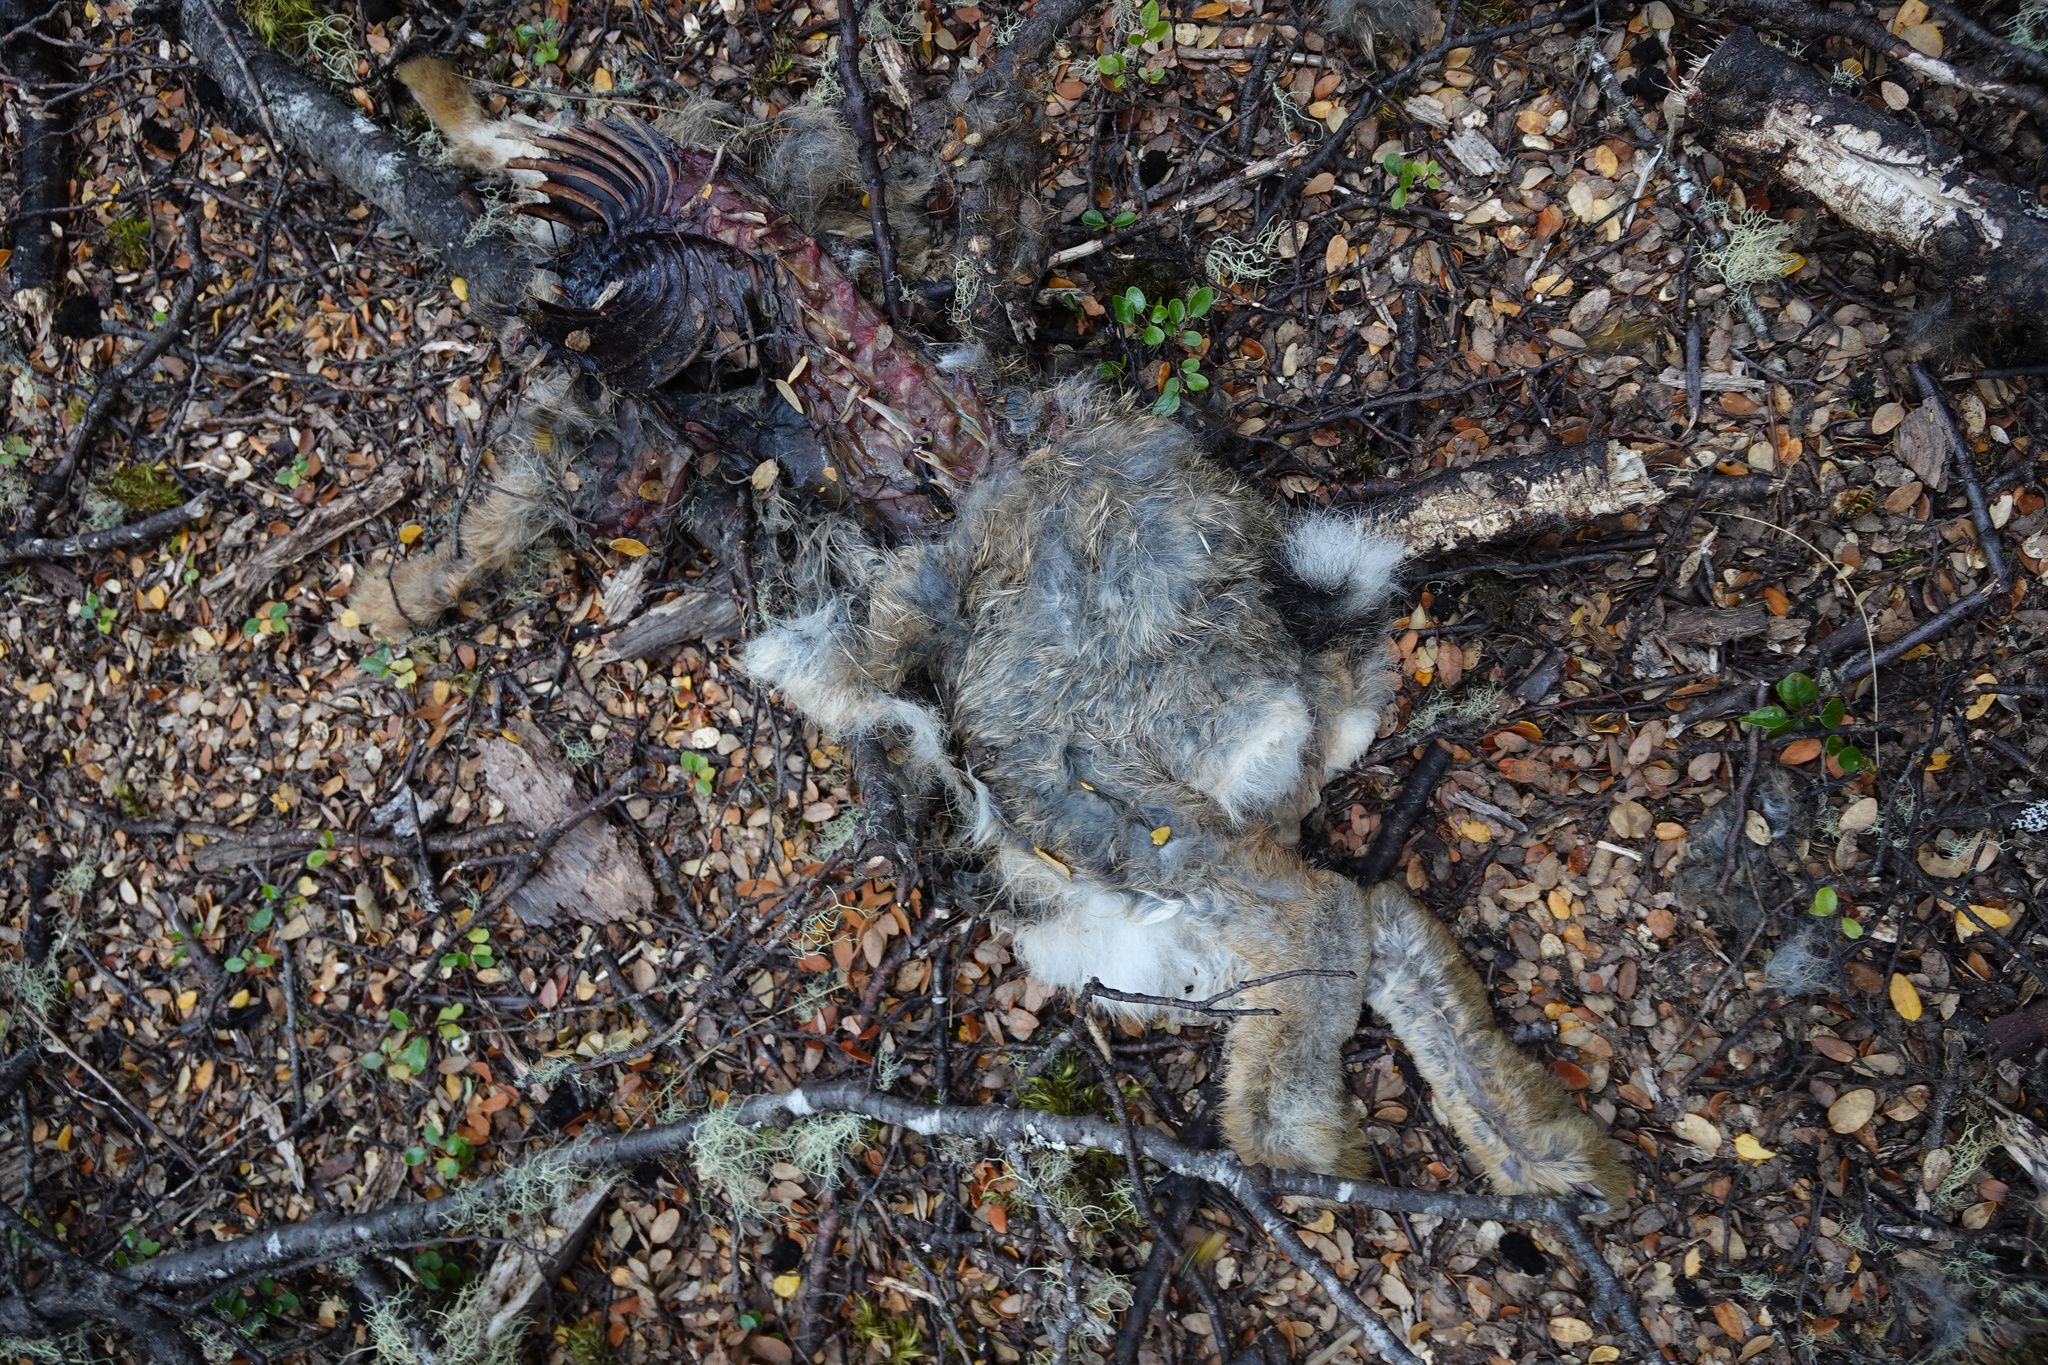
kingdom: Animalia
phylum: Chordata
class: Mammalia
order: Lagomorpha
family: Leporidae
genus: Oryctolagus
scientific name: Oryctolagus cuniculus
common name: European rabbit
